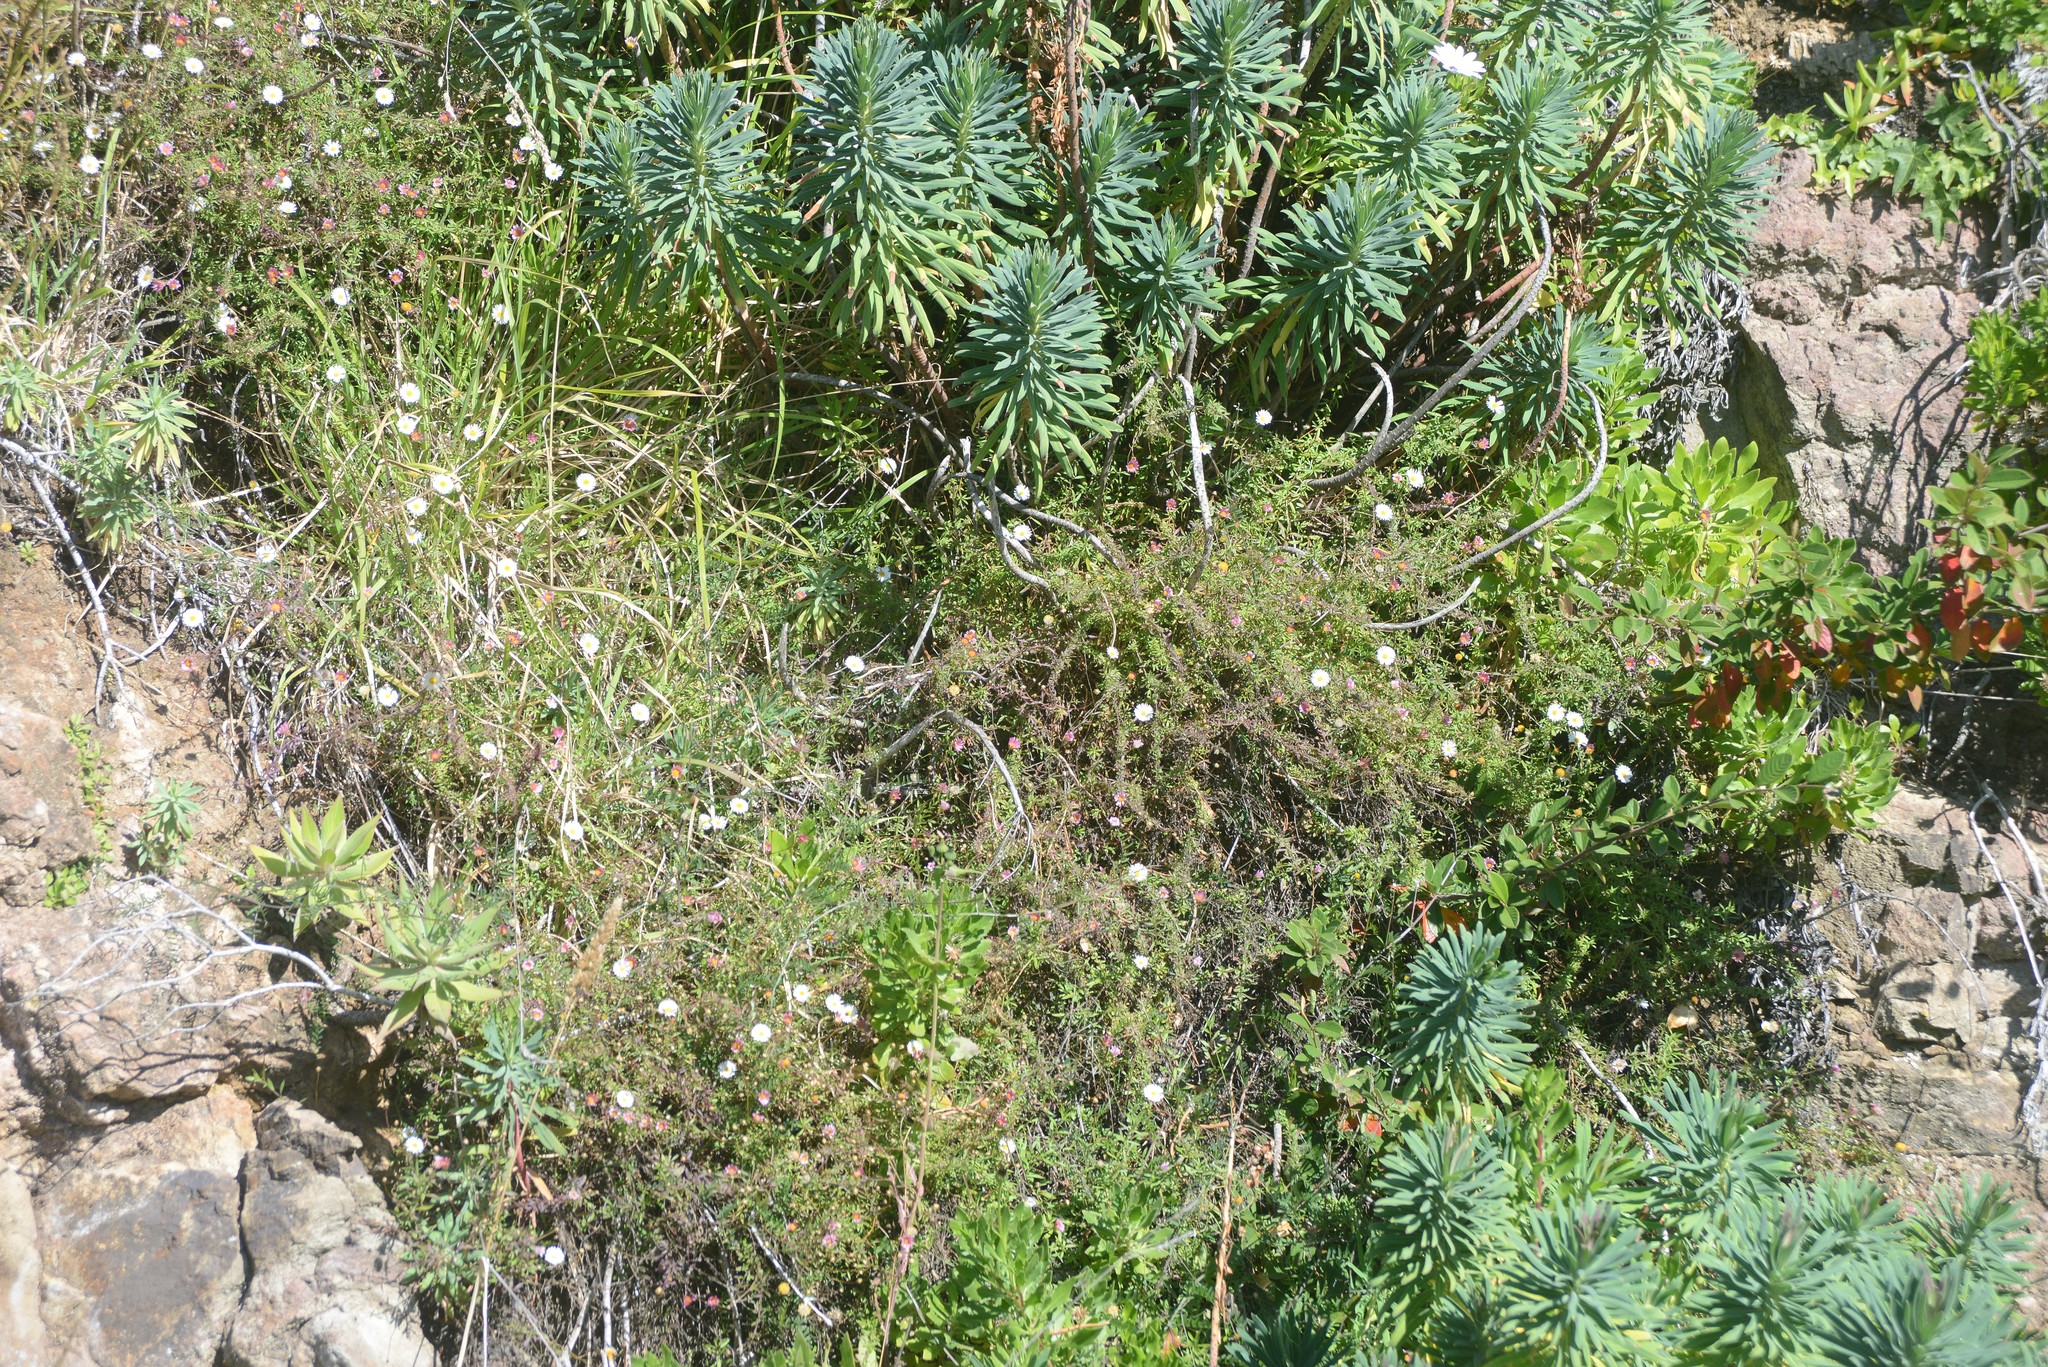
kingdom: Plantae
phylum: Tracheophyta
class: Magnoliopsida
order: Asterales
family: Asteraceae
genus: Erigeron
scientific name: Erigeron karvinskianus
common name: Mexican fleabane
